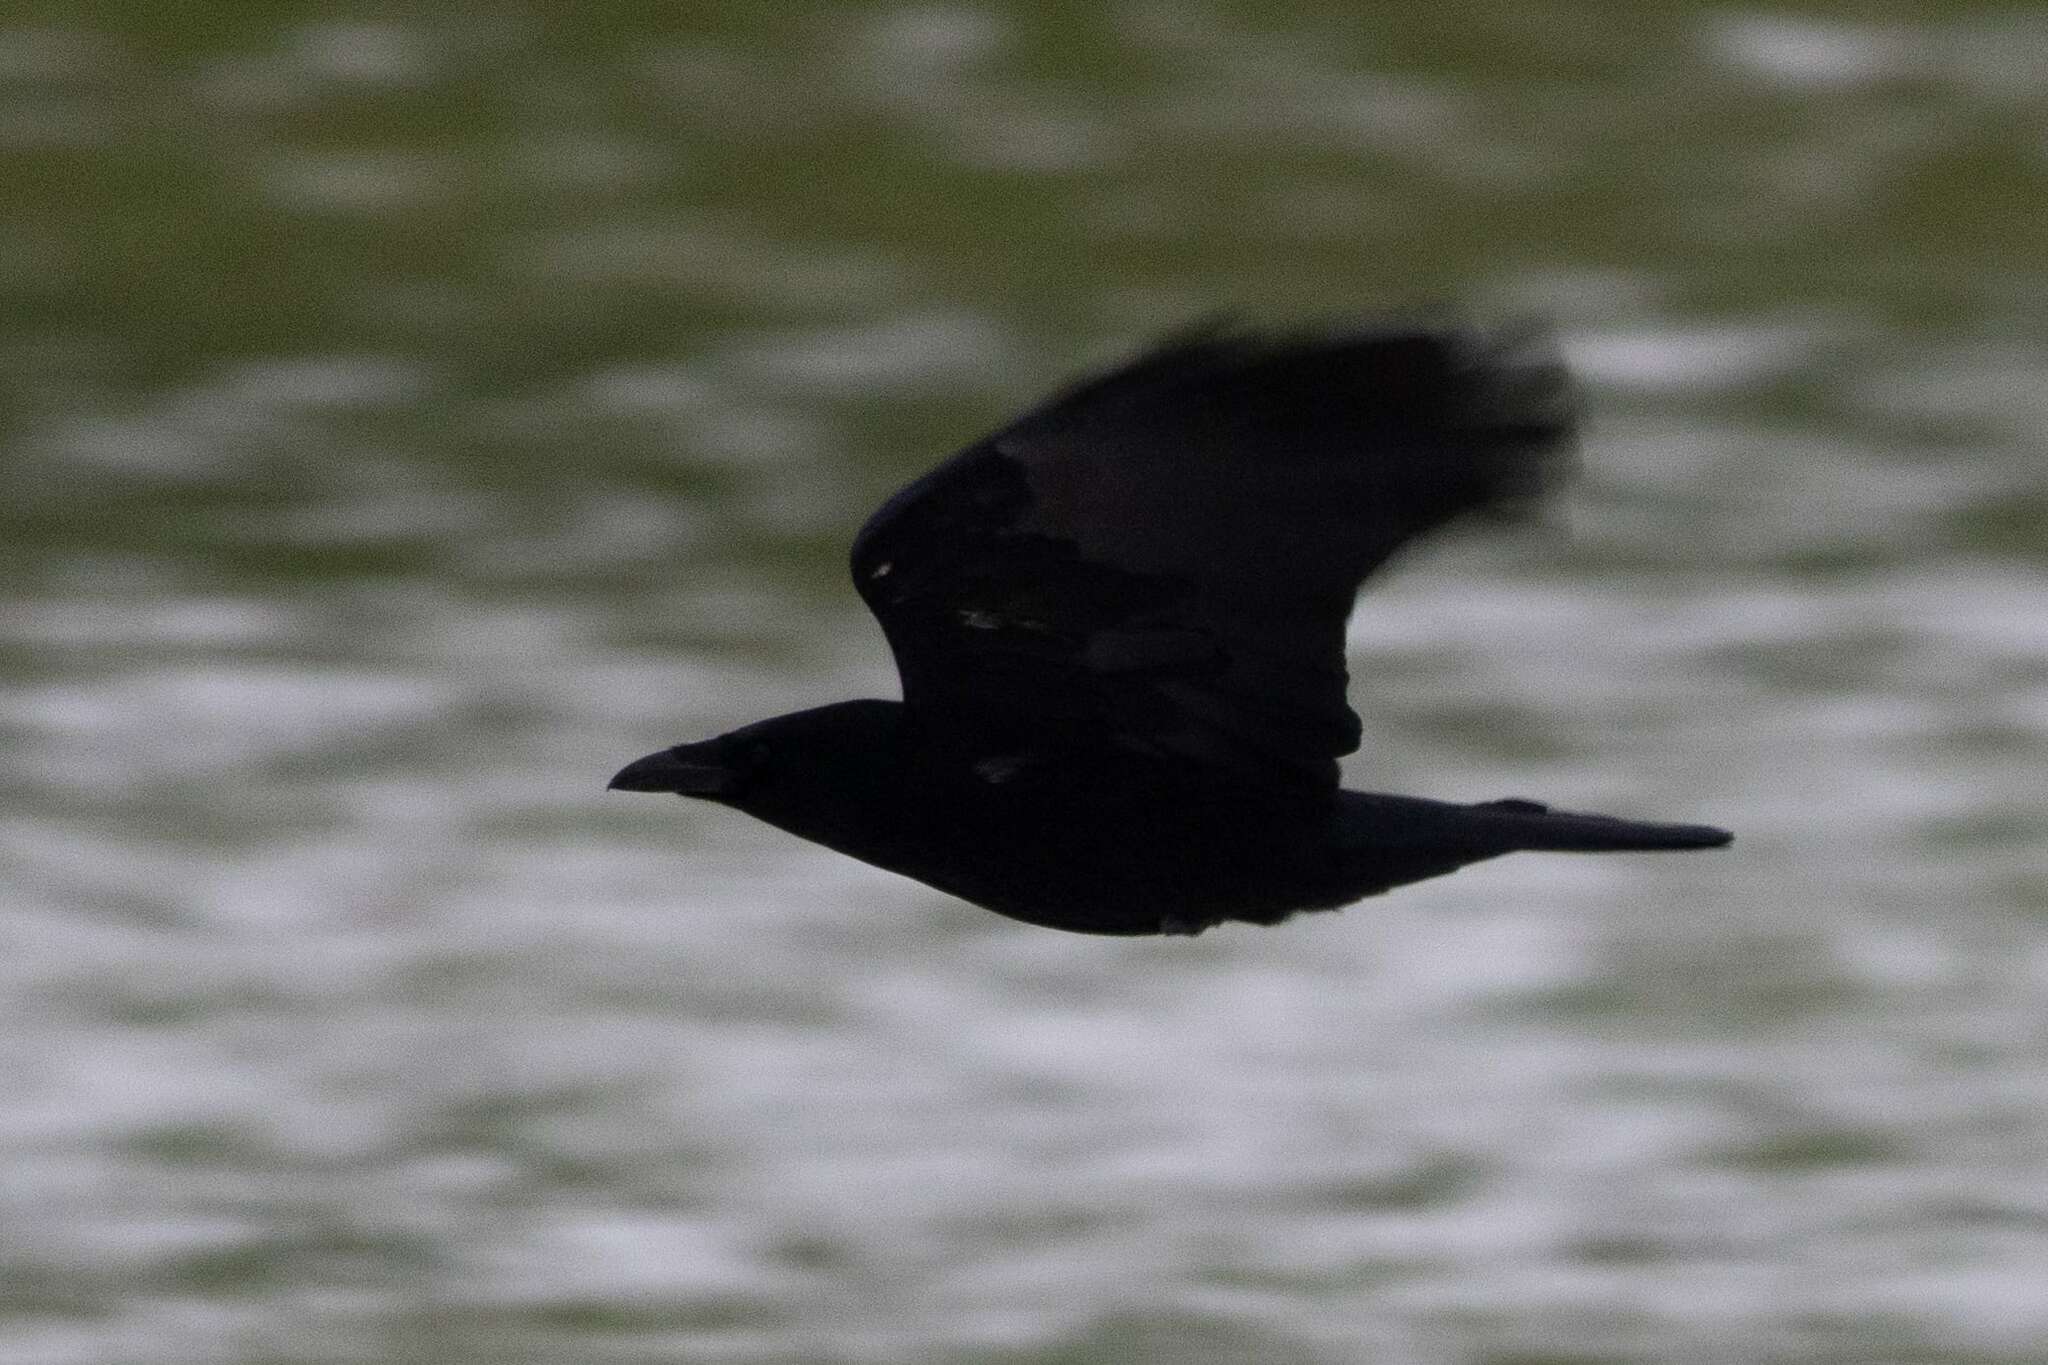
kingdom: Animalia
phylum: Chordata
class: Aves
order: Passeriformes
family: Corvidae
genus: Corvus
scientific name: Corvus corone
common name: Carrion crow
